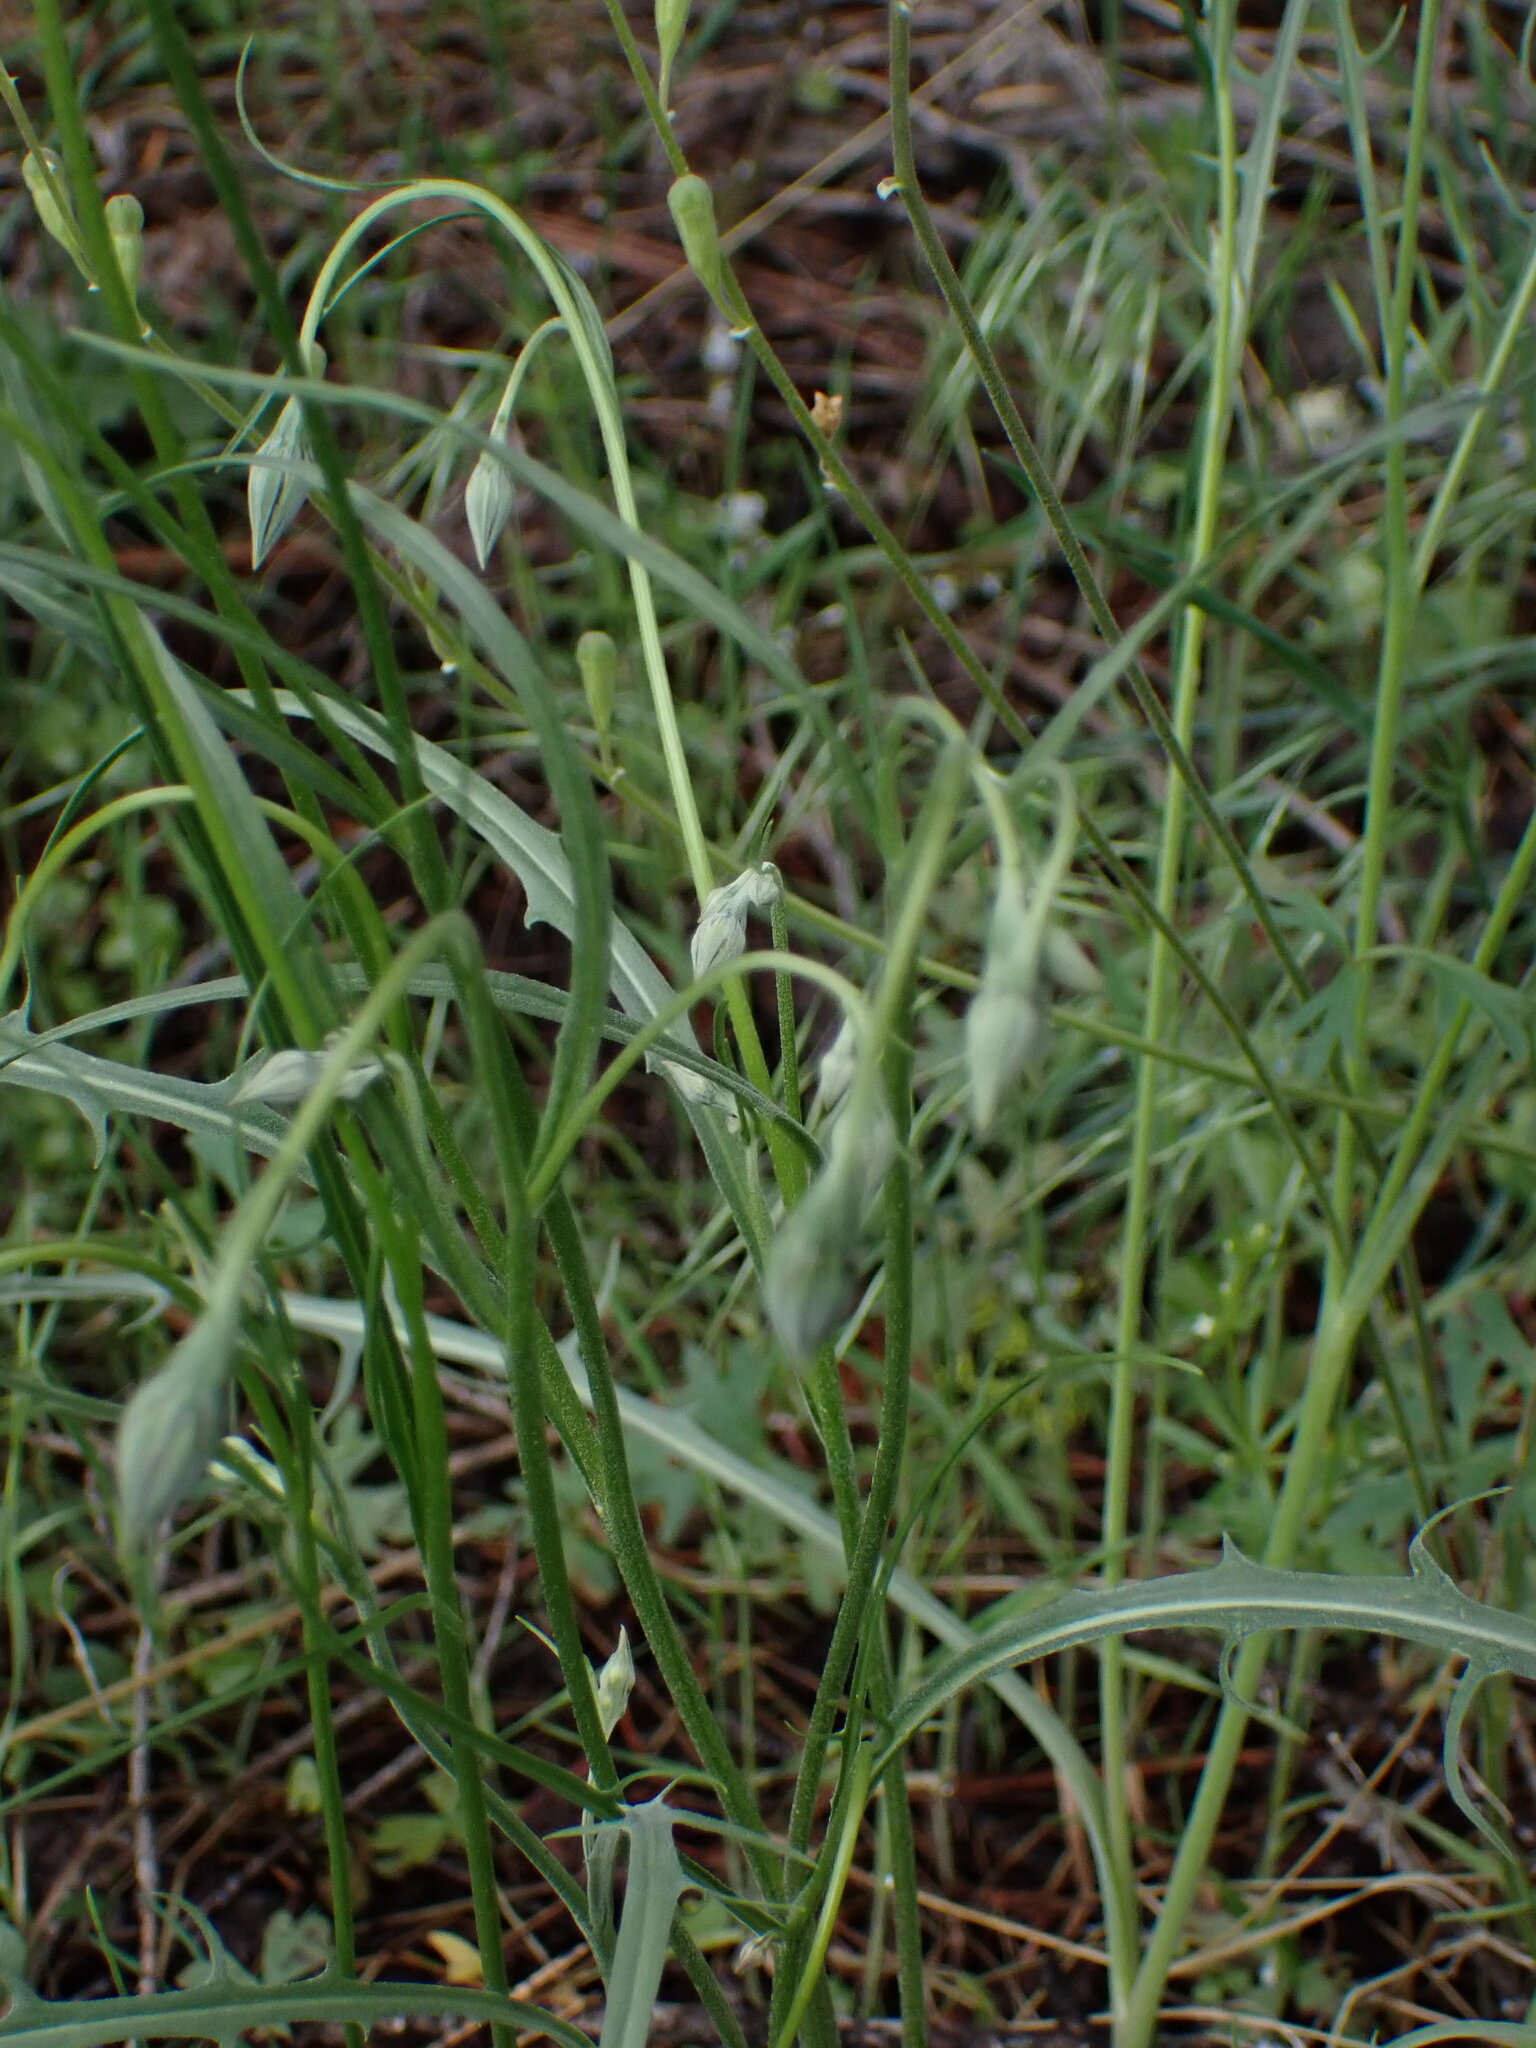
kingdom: Plantae
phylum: Tracheophyta
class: Magnoliopsida
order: Asterales
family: Asteraceae
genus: Microseris
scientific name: Microseris nutans
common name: Nodding microseris
